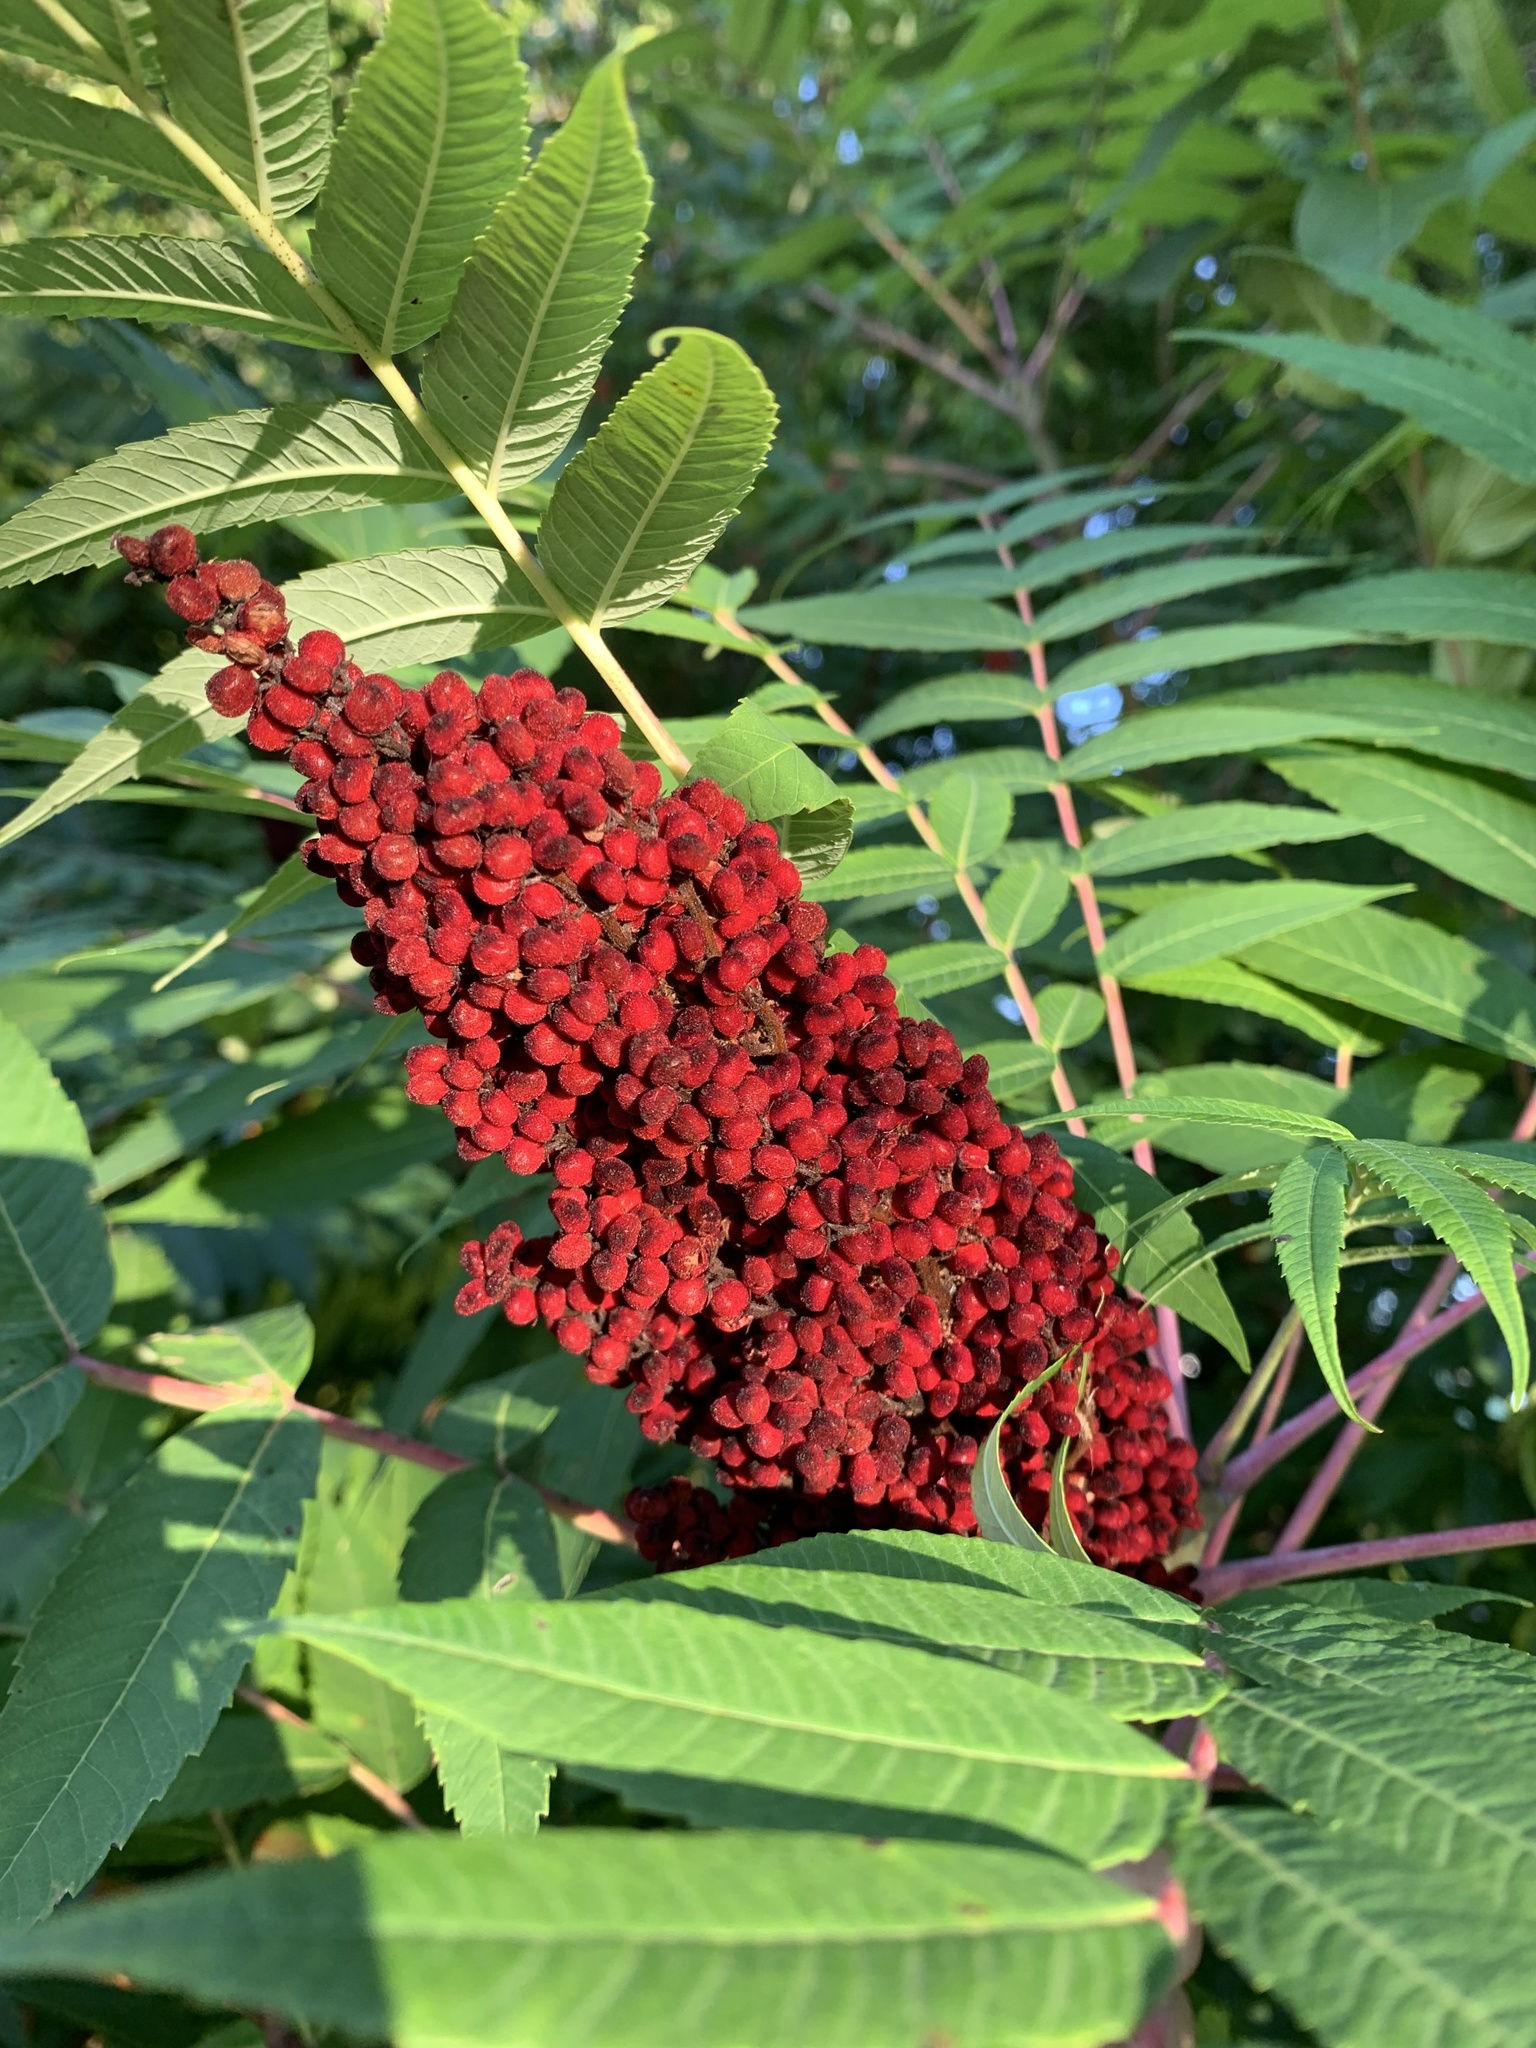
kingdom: Plantae
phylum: Tracheophyta
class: Magnoliopsida
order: Sapindales
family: Anacardiaceae
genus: Rhus
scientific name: Rhus glabra
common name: Scarlet sumac
